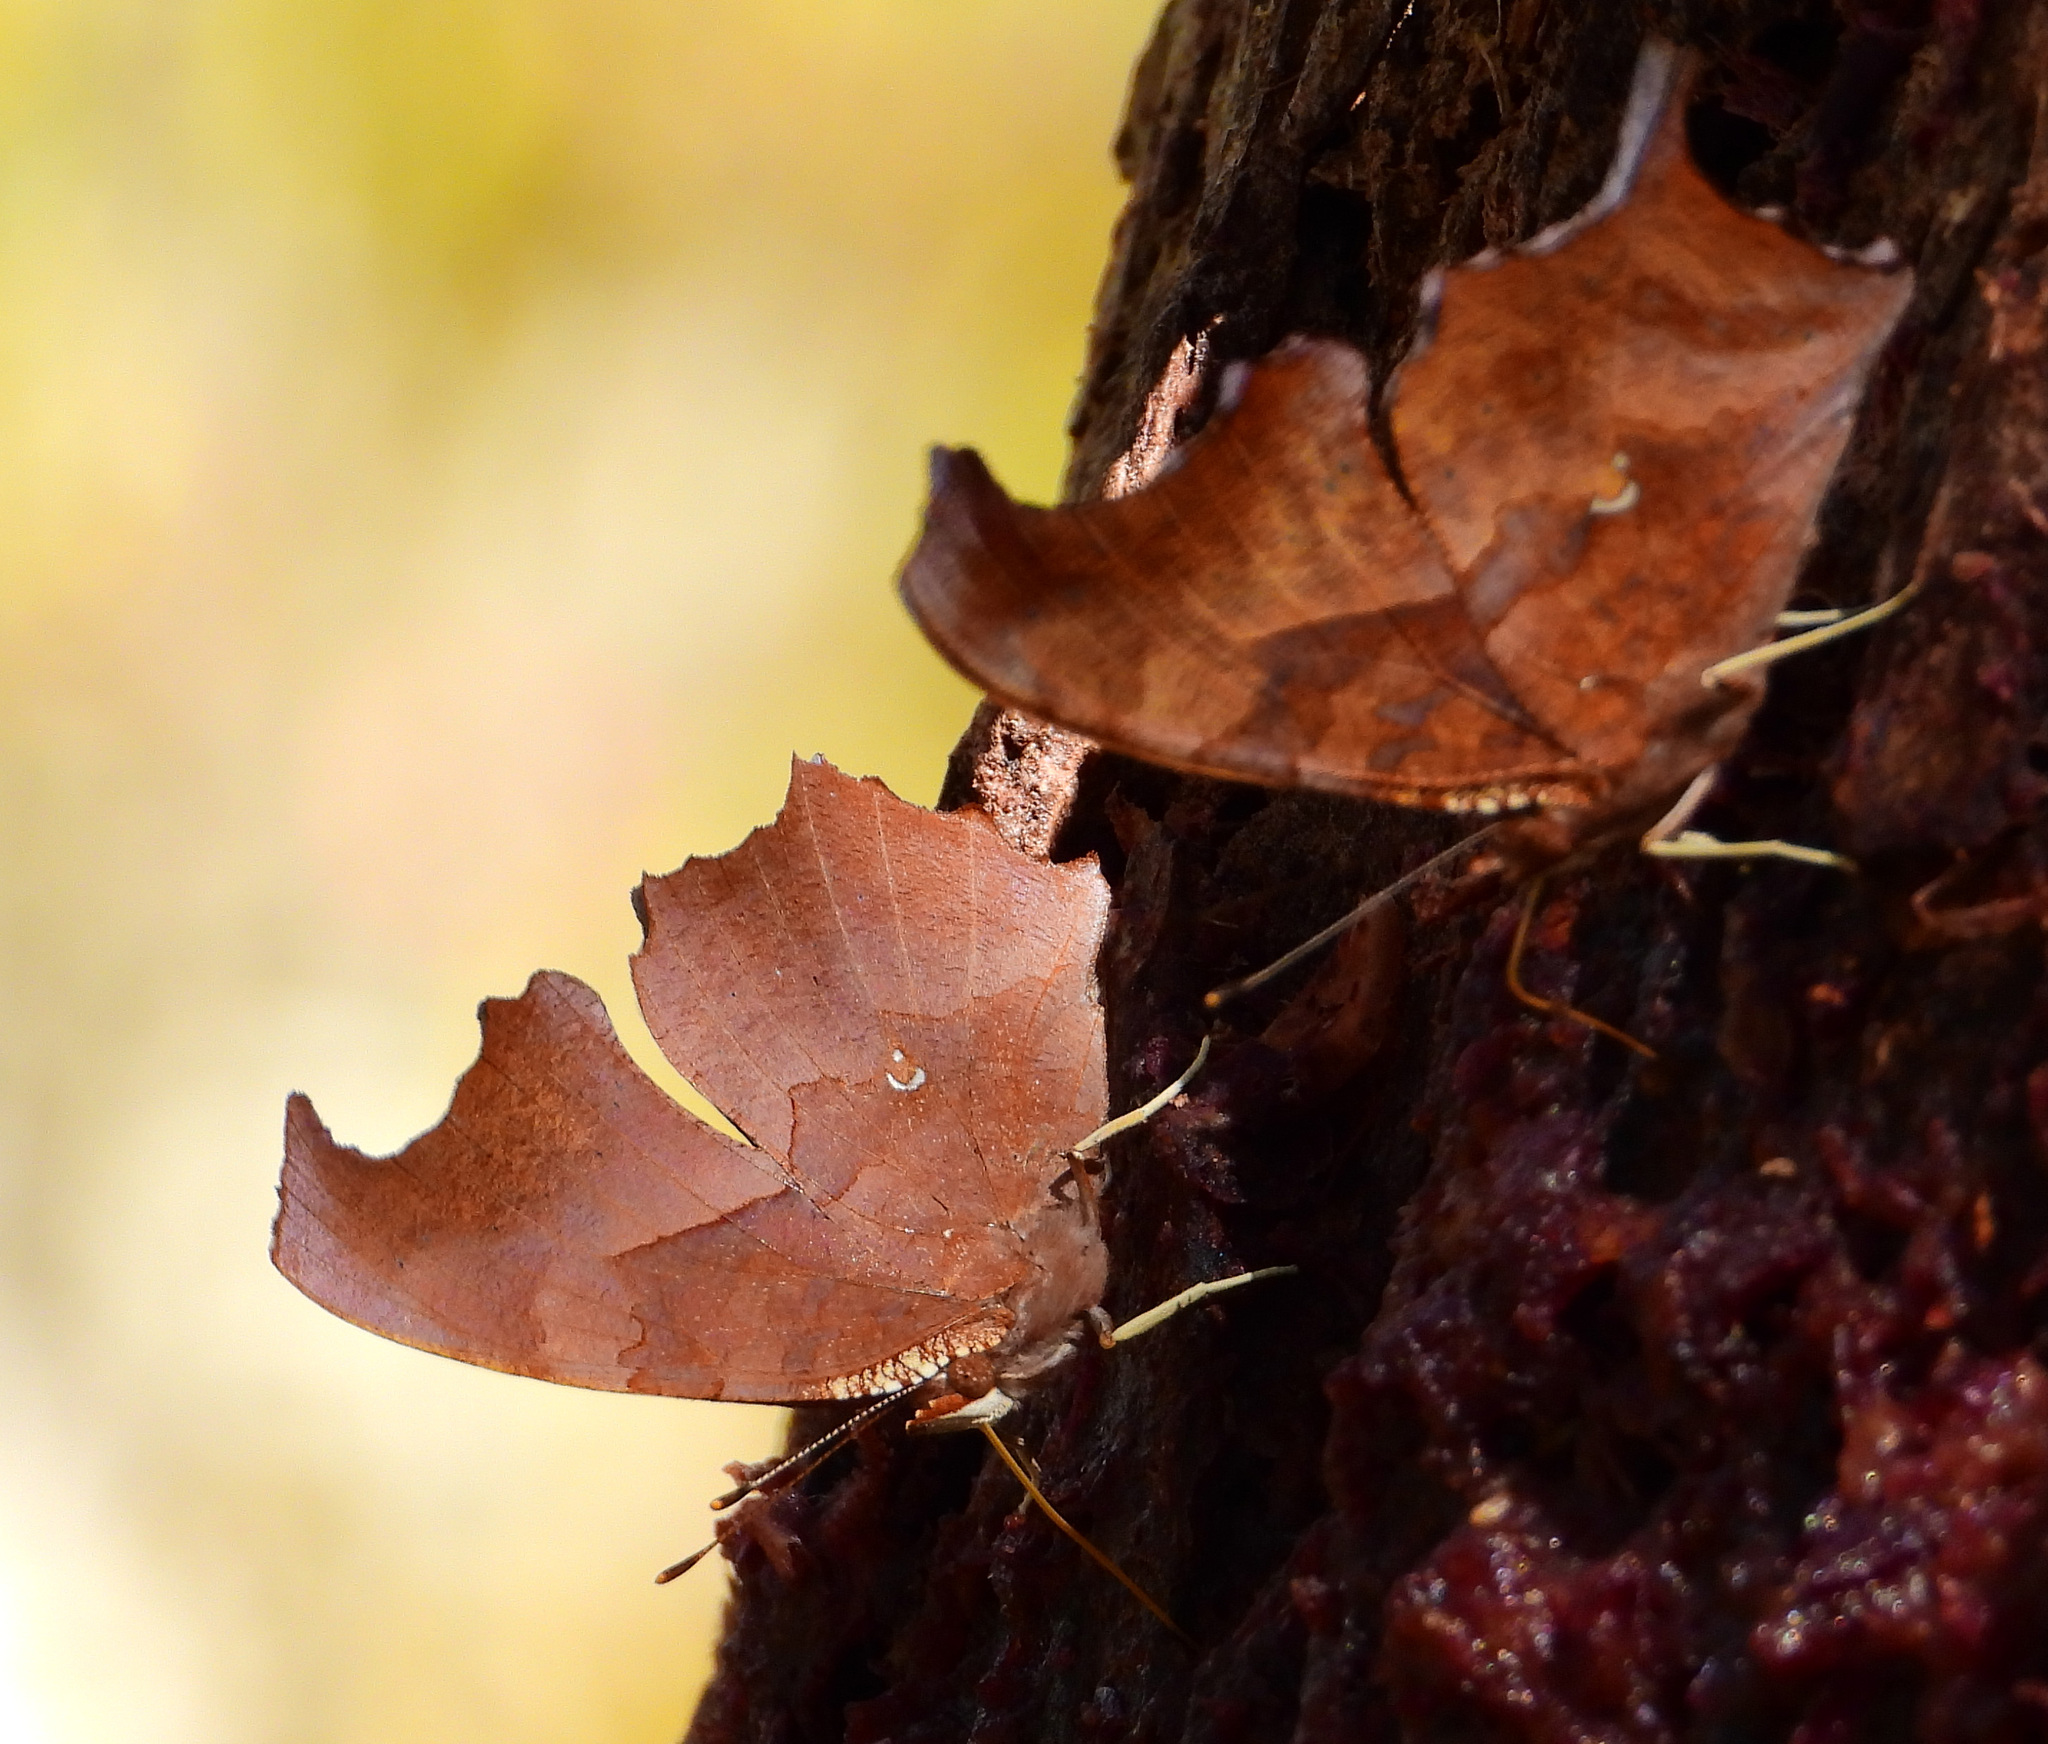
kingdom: Animalia
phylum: Arthropoda
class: Insecta
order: Lepidoptera
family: Nymphalidae
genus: Polygonia
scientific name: Polygonia interrogationis
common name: Question mark
